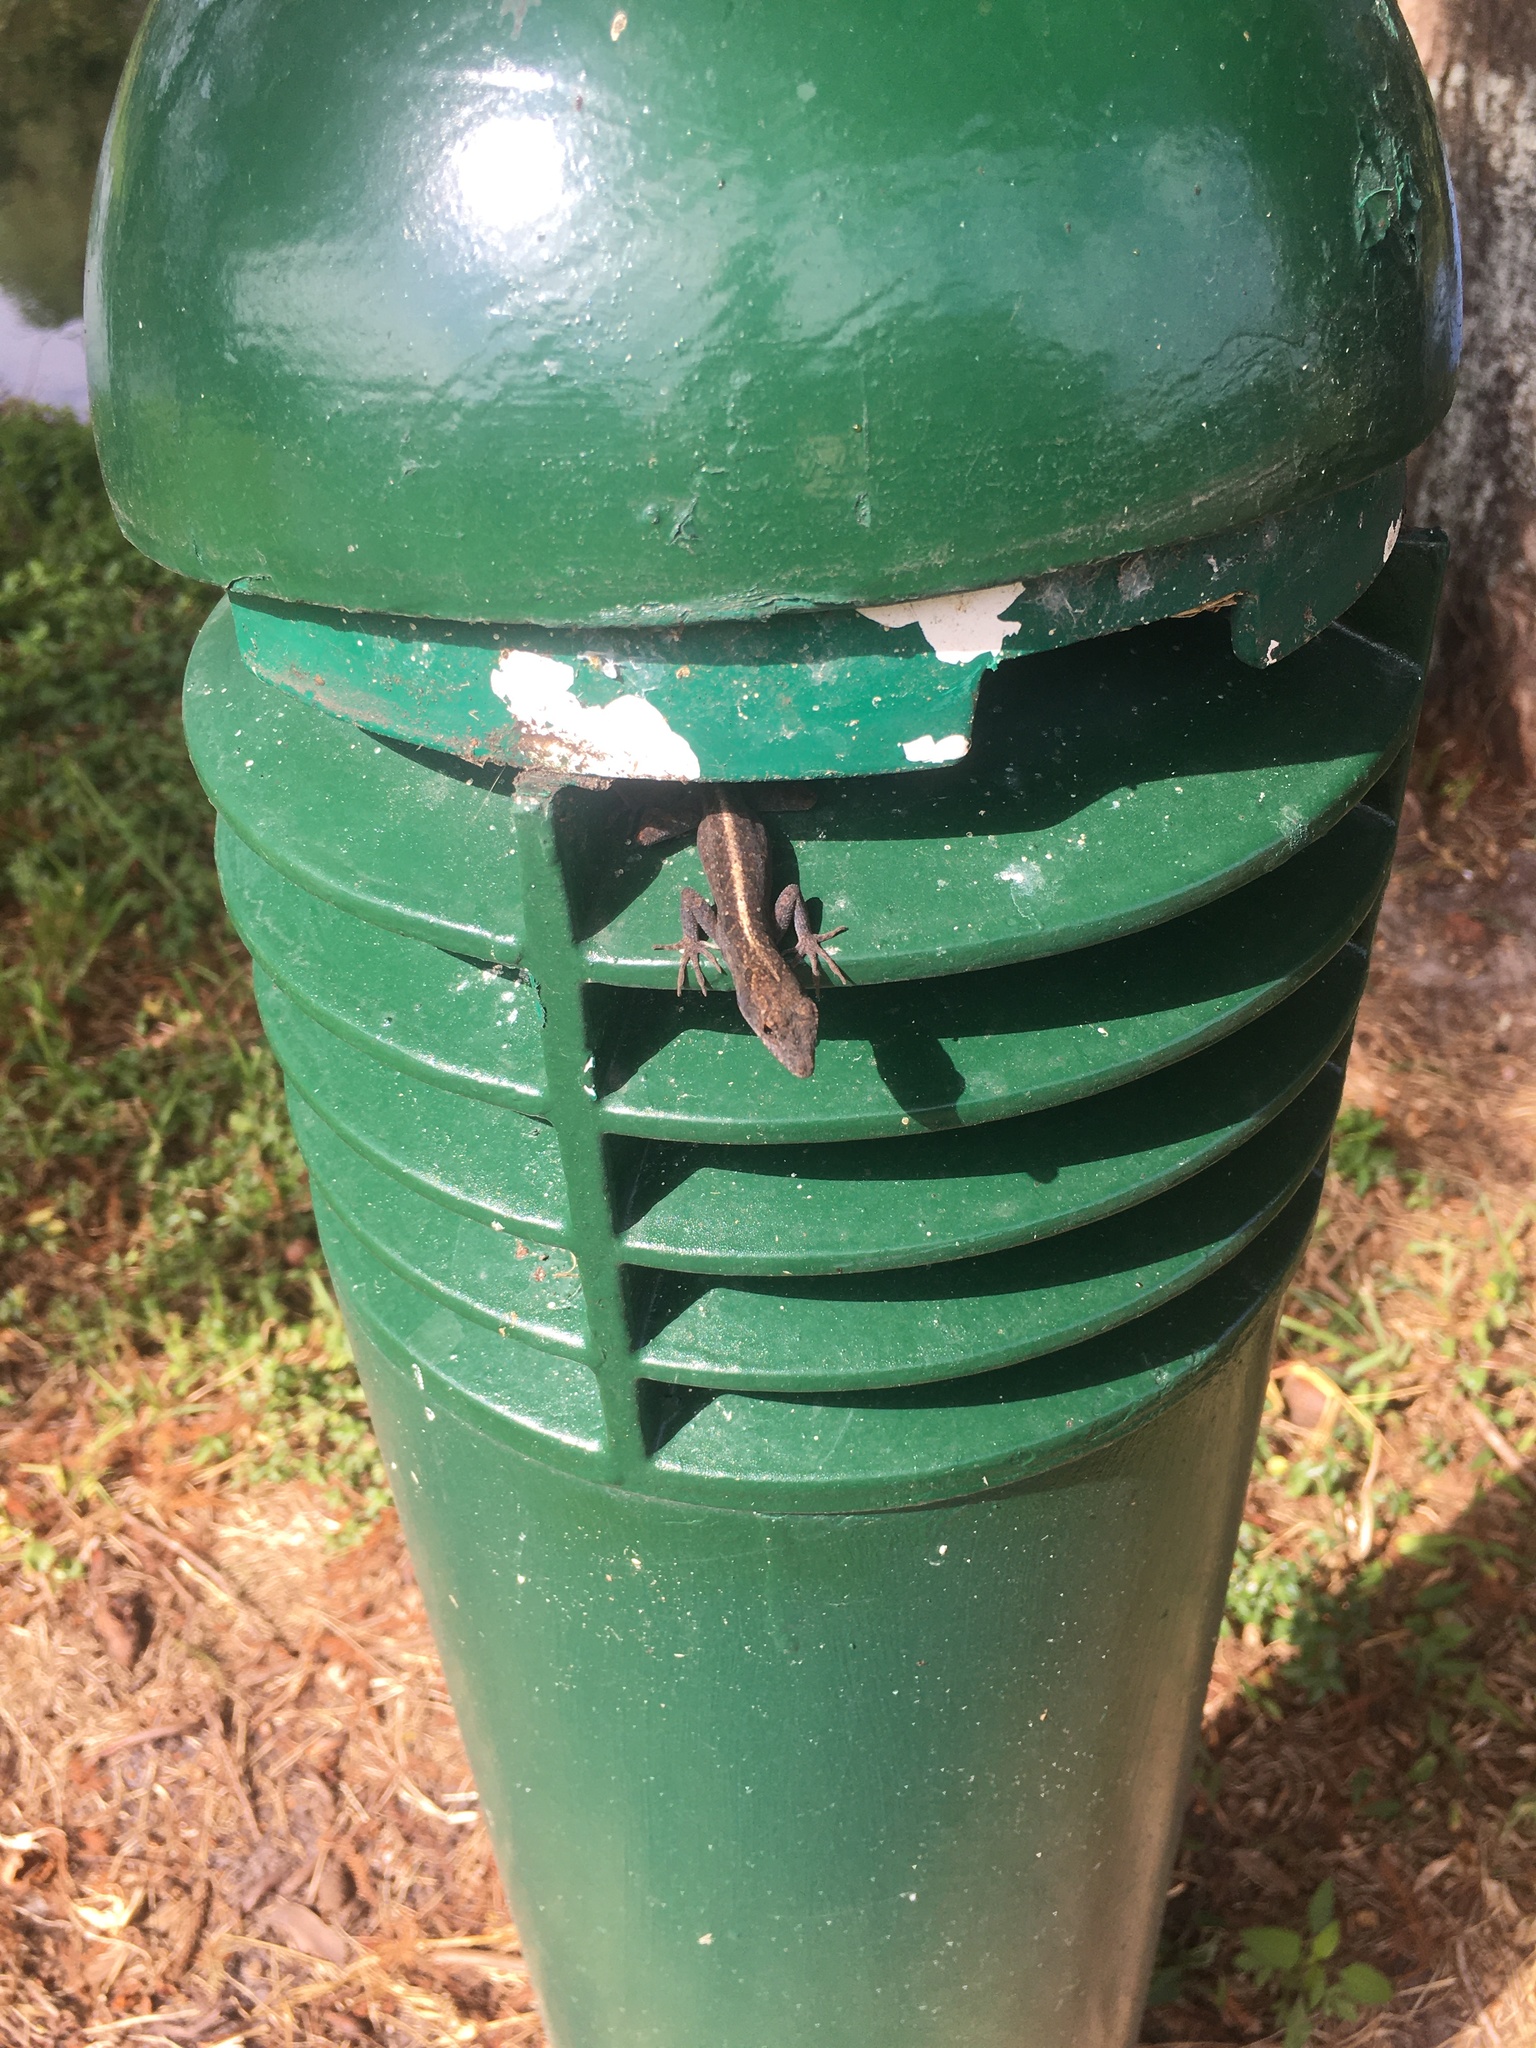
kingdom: Animalia
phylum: Chordata
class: Squamata
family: Dactyloidae
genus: Anolis
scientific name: Anolis sagrei
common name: Brown anole
